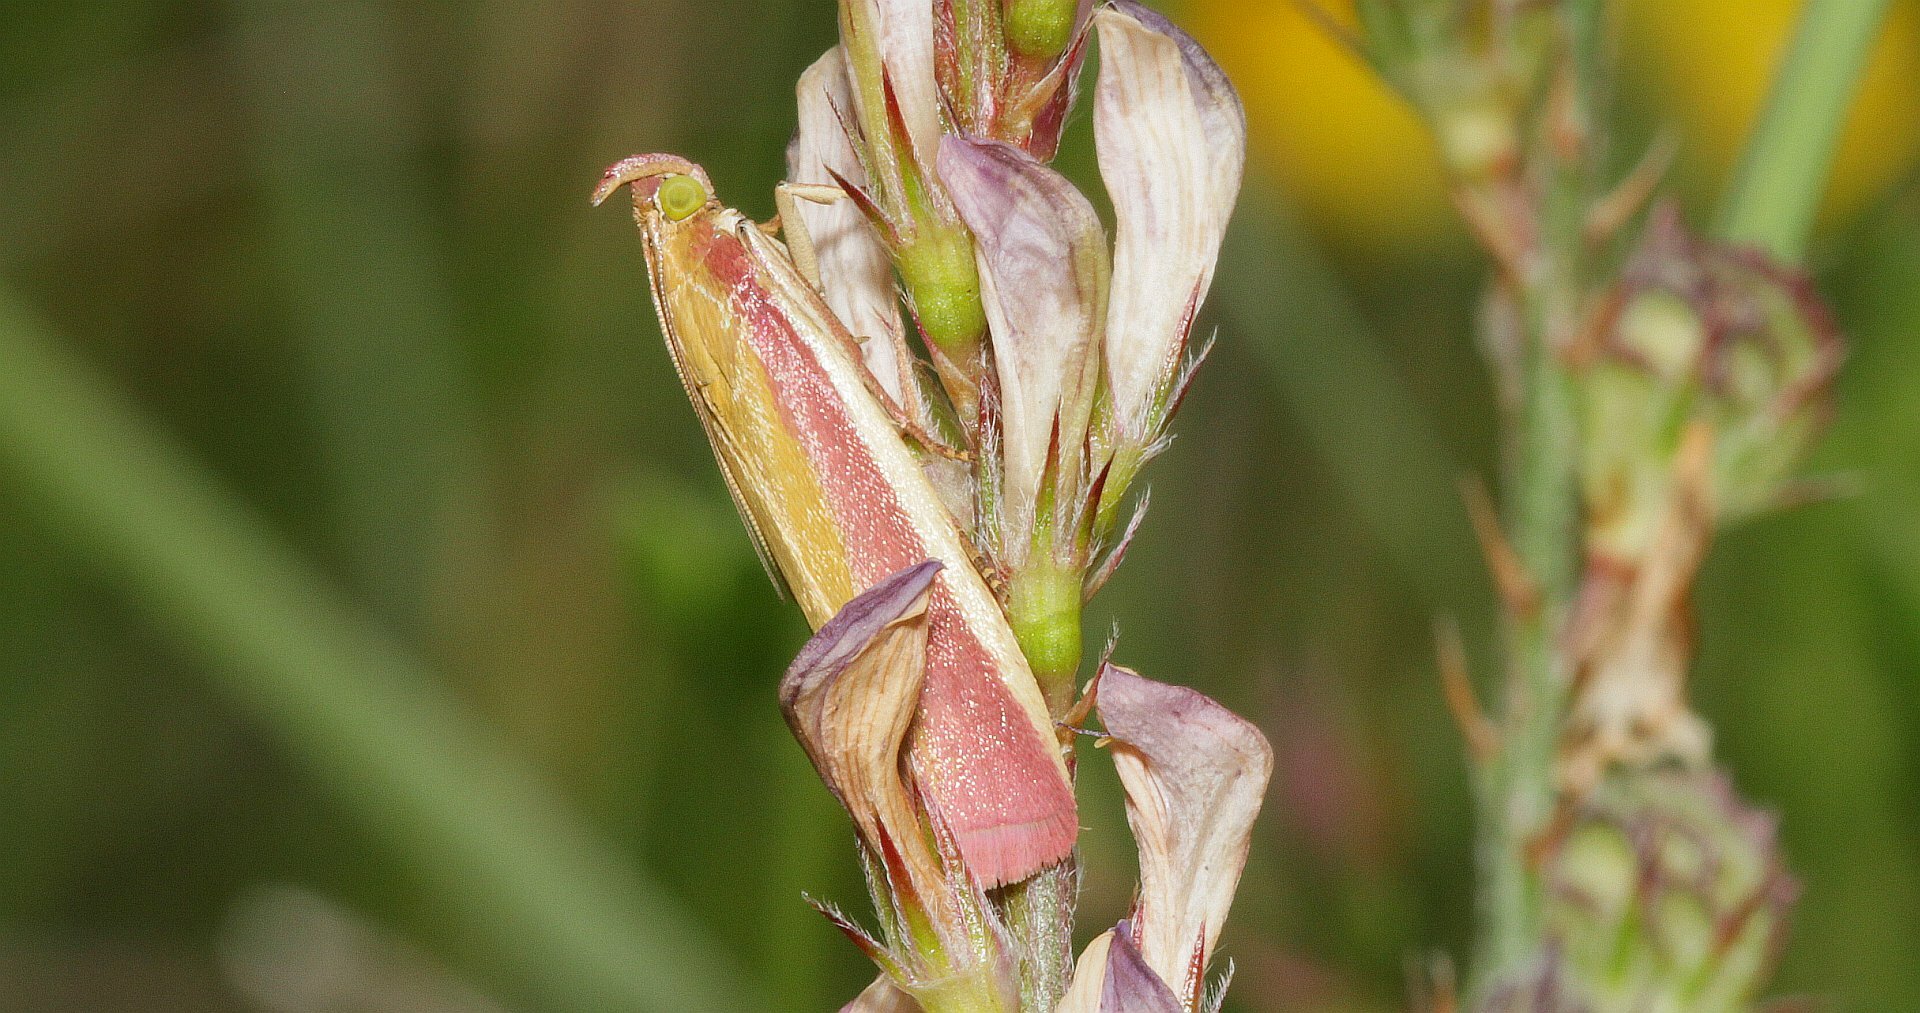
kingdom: Animalia
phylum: Arthropoda
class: Insecta
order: Lepidoptera
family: Pyralidae
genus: Oncocera
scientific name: Oncocera semirubella
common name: Rosy-striped knot-horn
